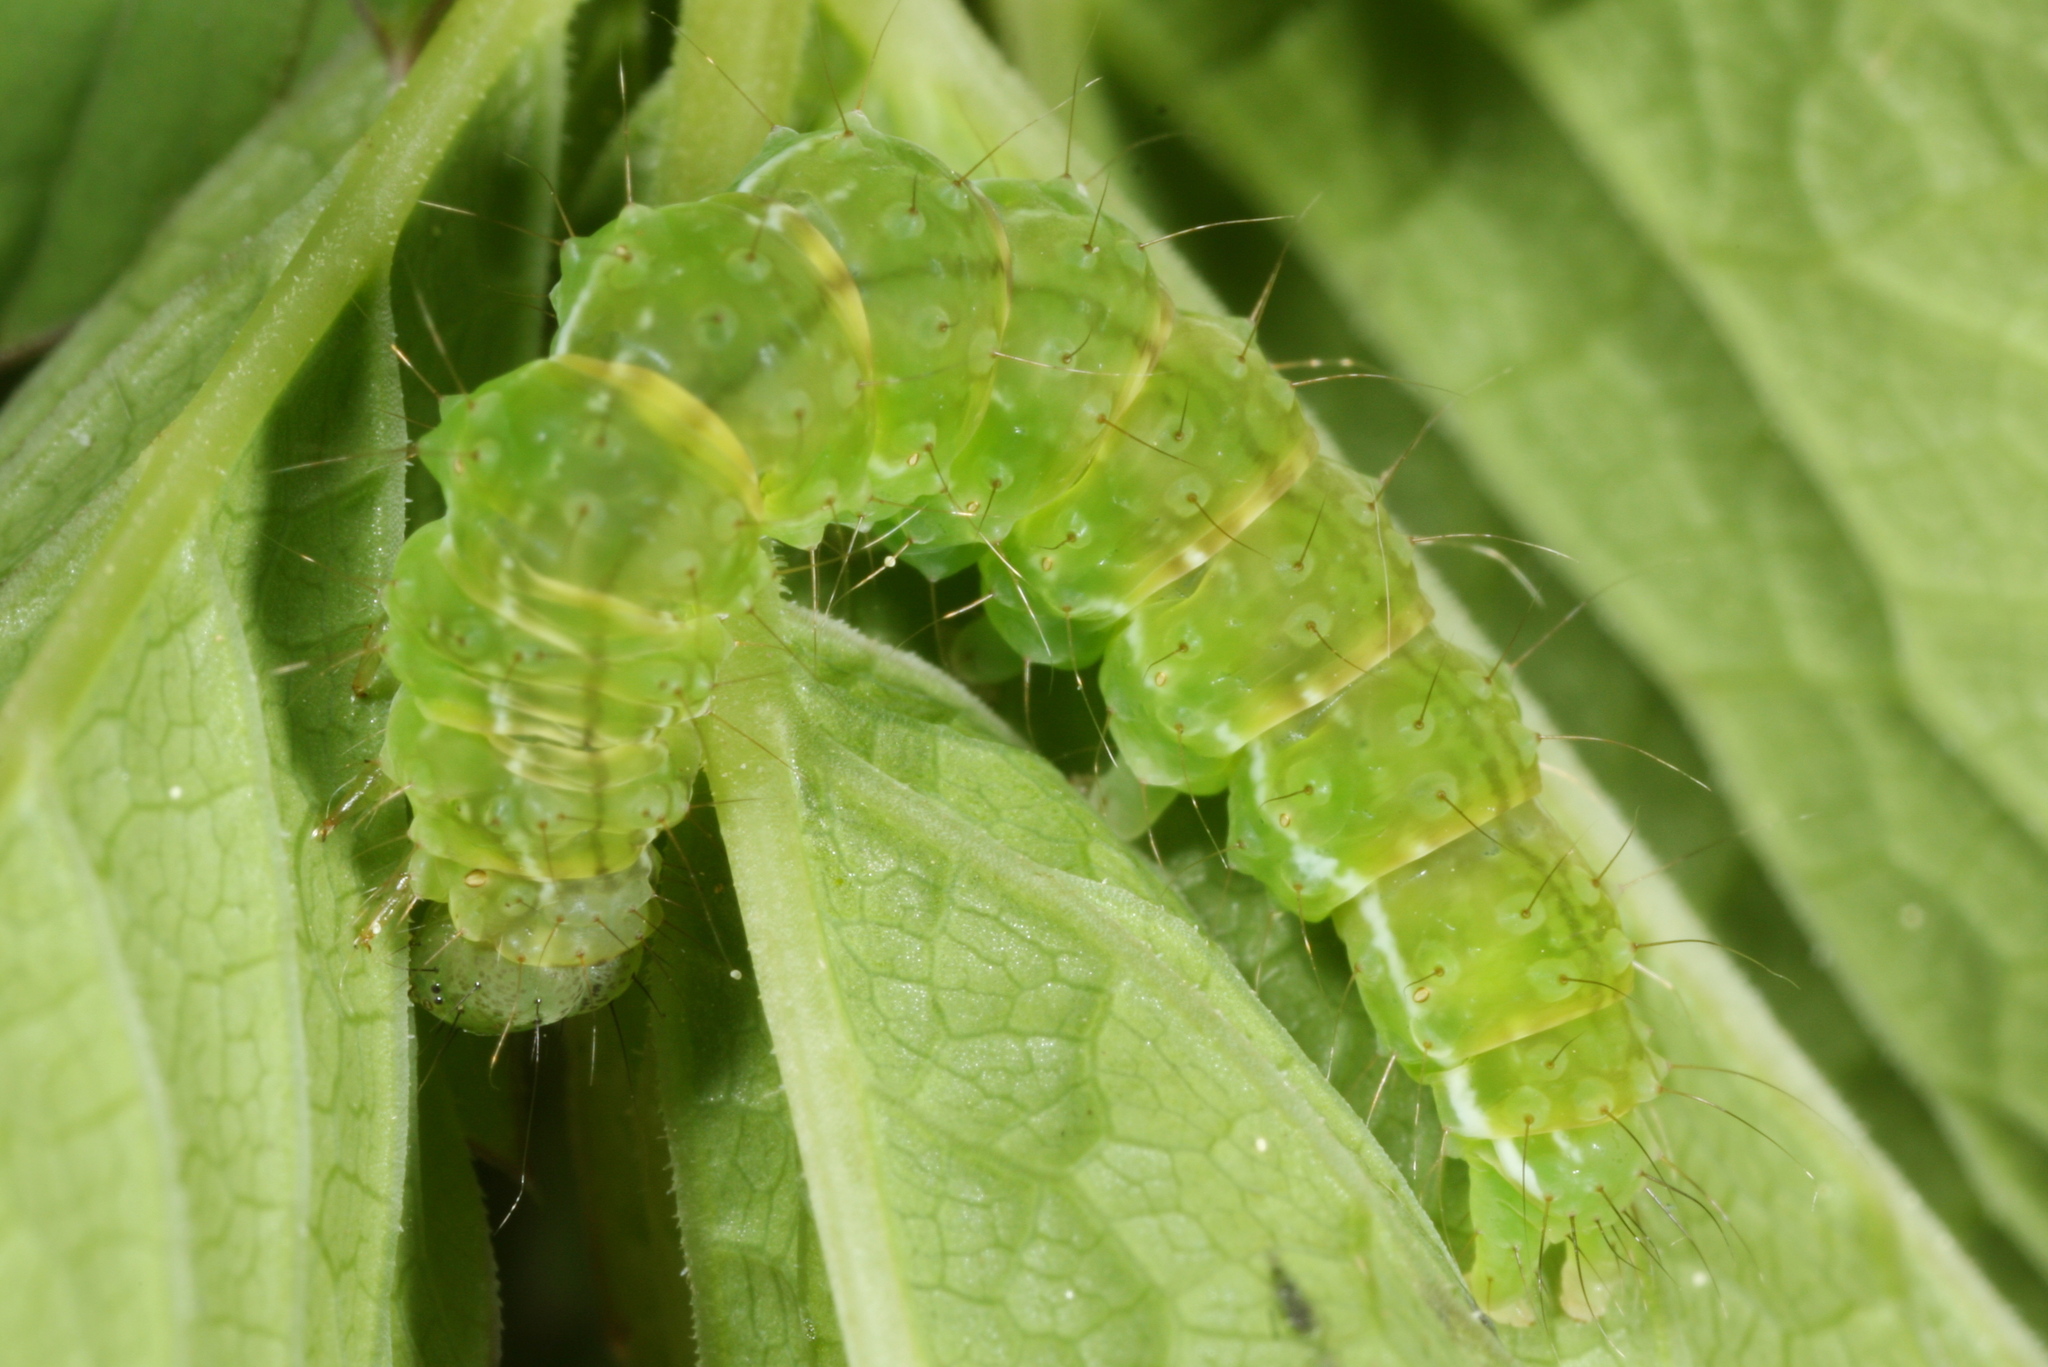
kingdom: Animalia
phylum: Arthropoda
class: Insecta
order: Lepidoptera
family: Erebidae
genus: Hypena
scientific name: Hypena proboscidalis
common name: Snout
